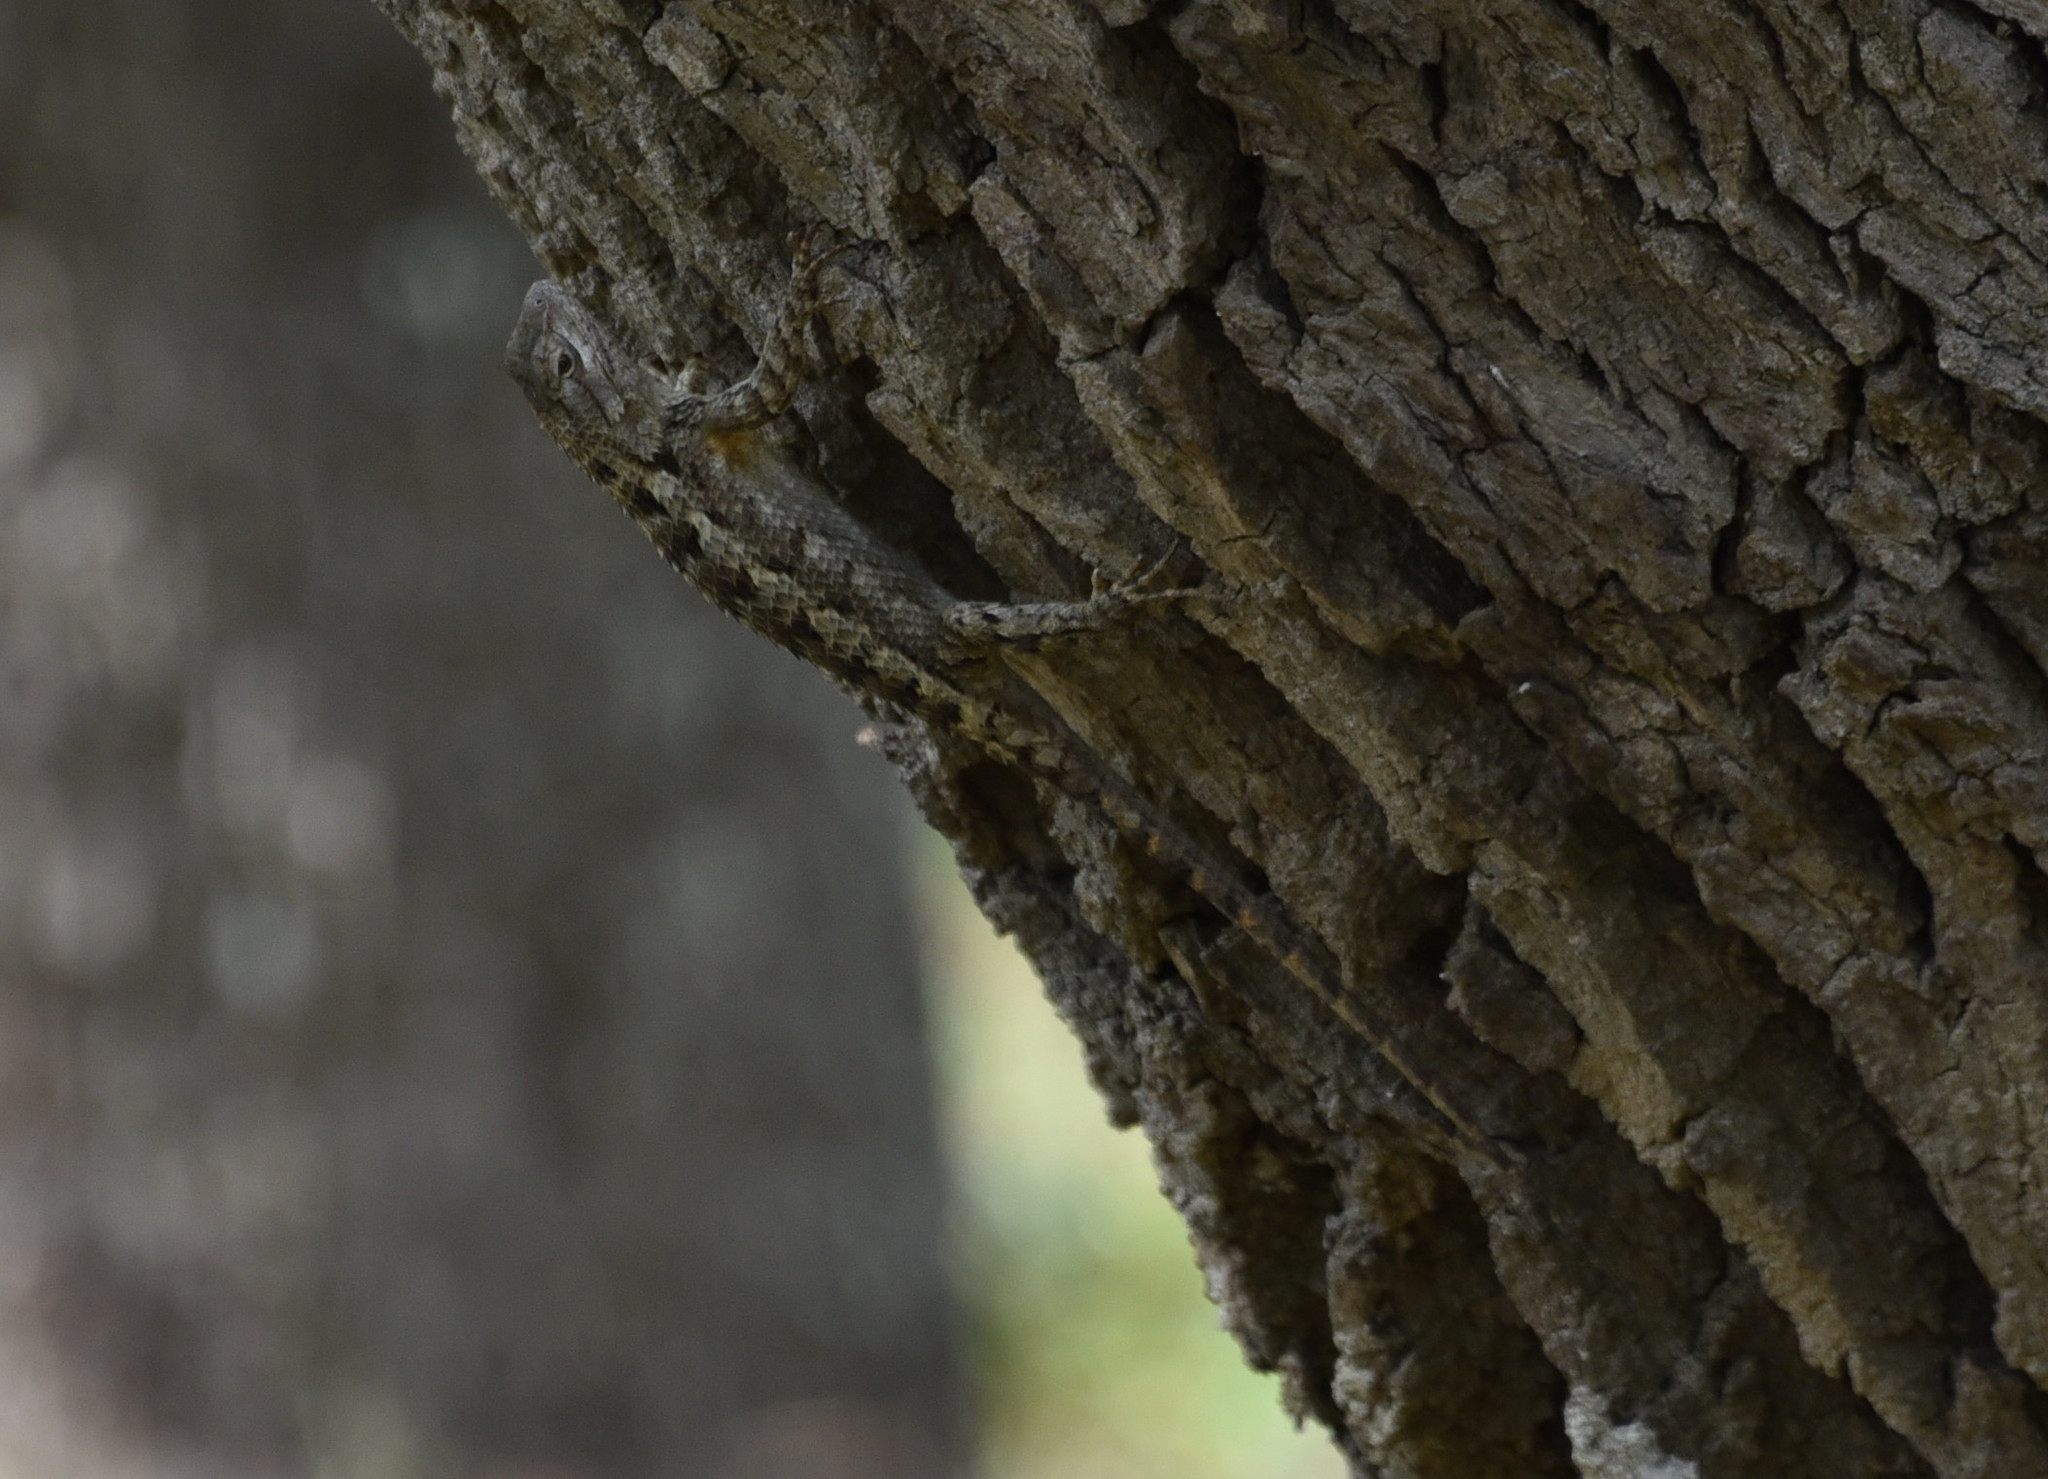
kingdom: Animalia
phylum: Chordata
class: Squamata
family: Phrynosomatidae
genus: Sceloporus
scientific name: Sceloporus olivaceus
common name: Texas spiny lizard
